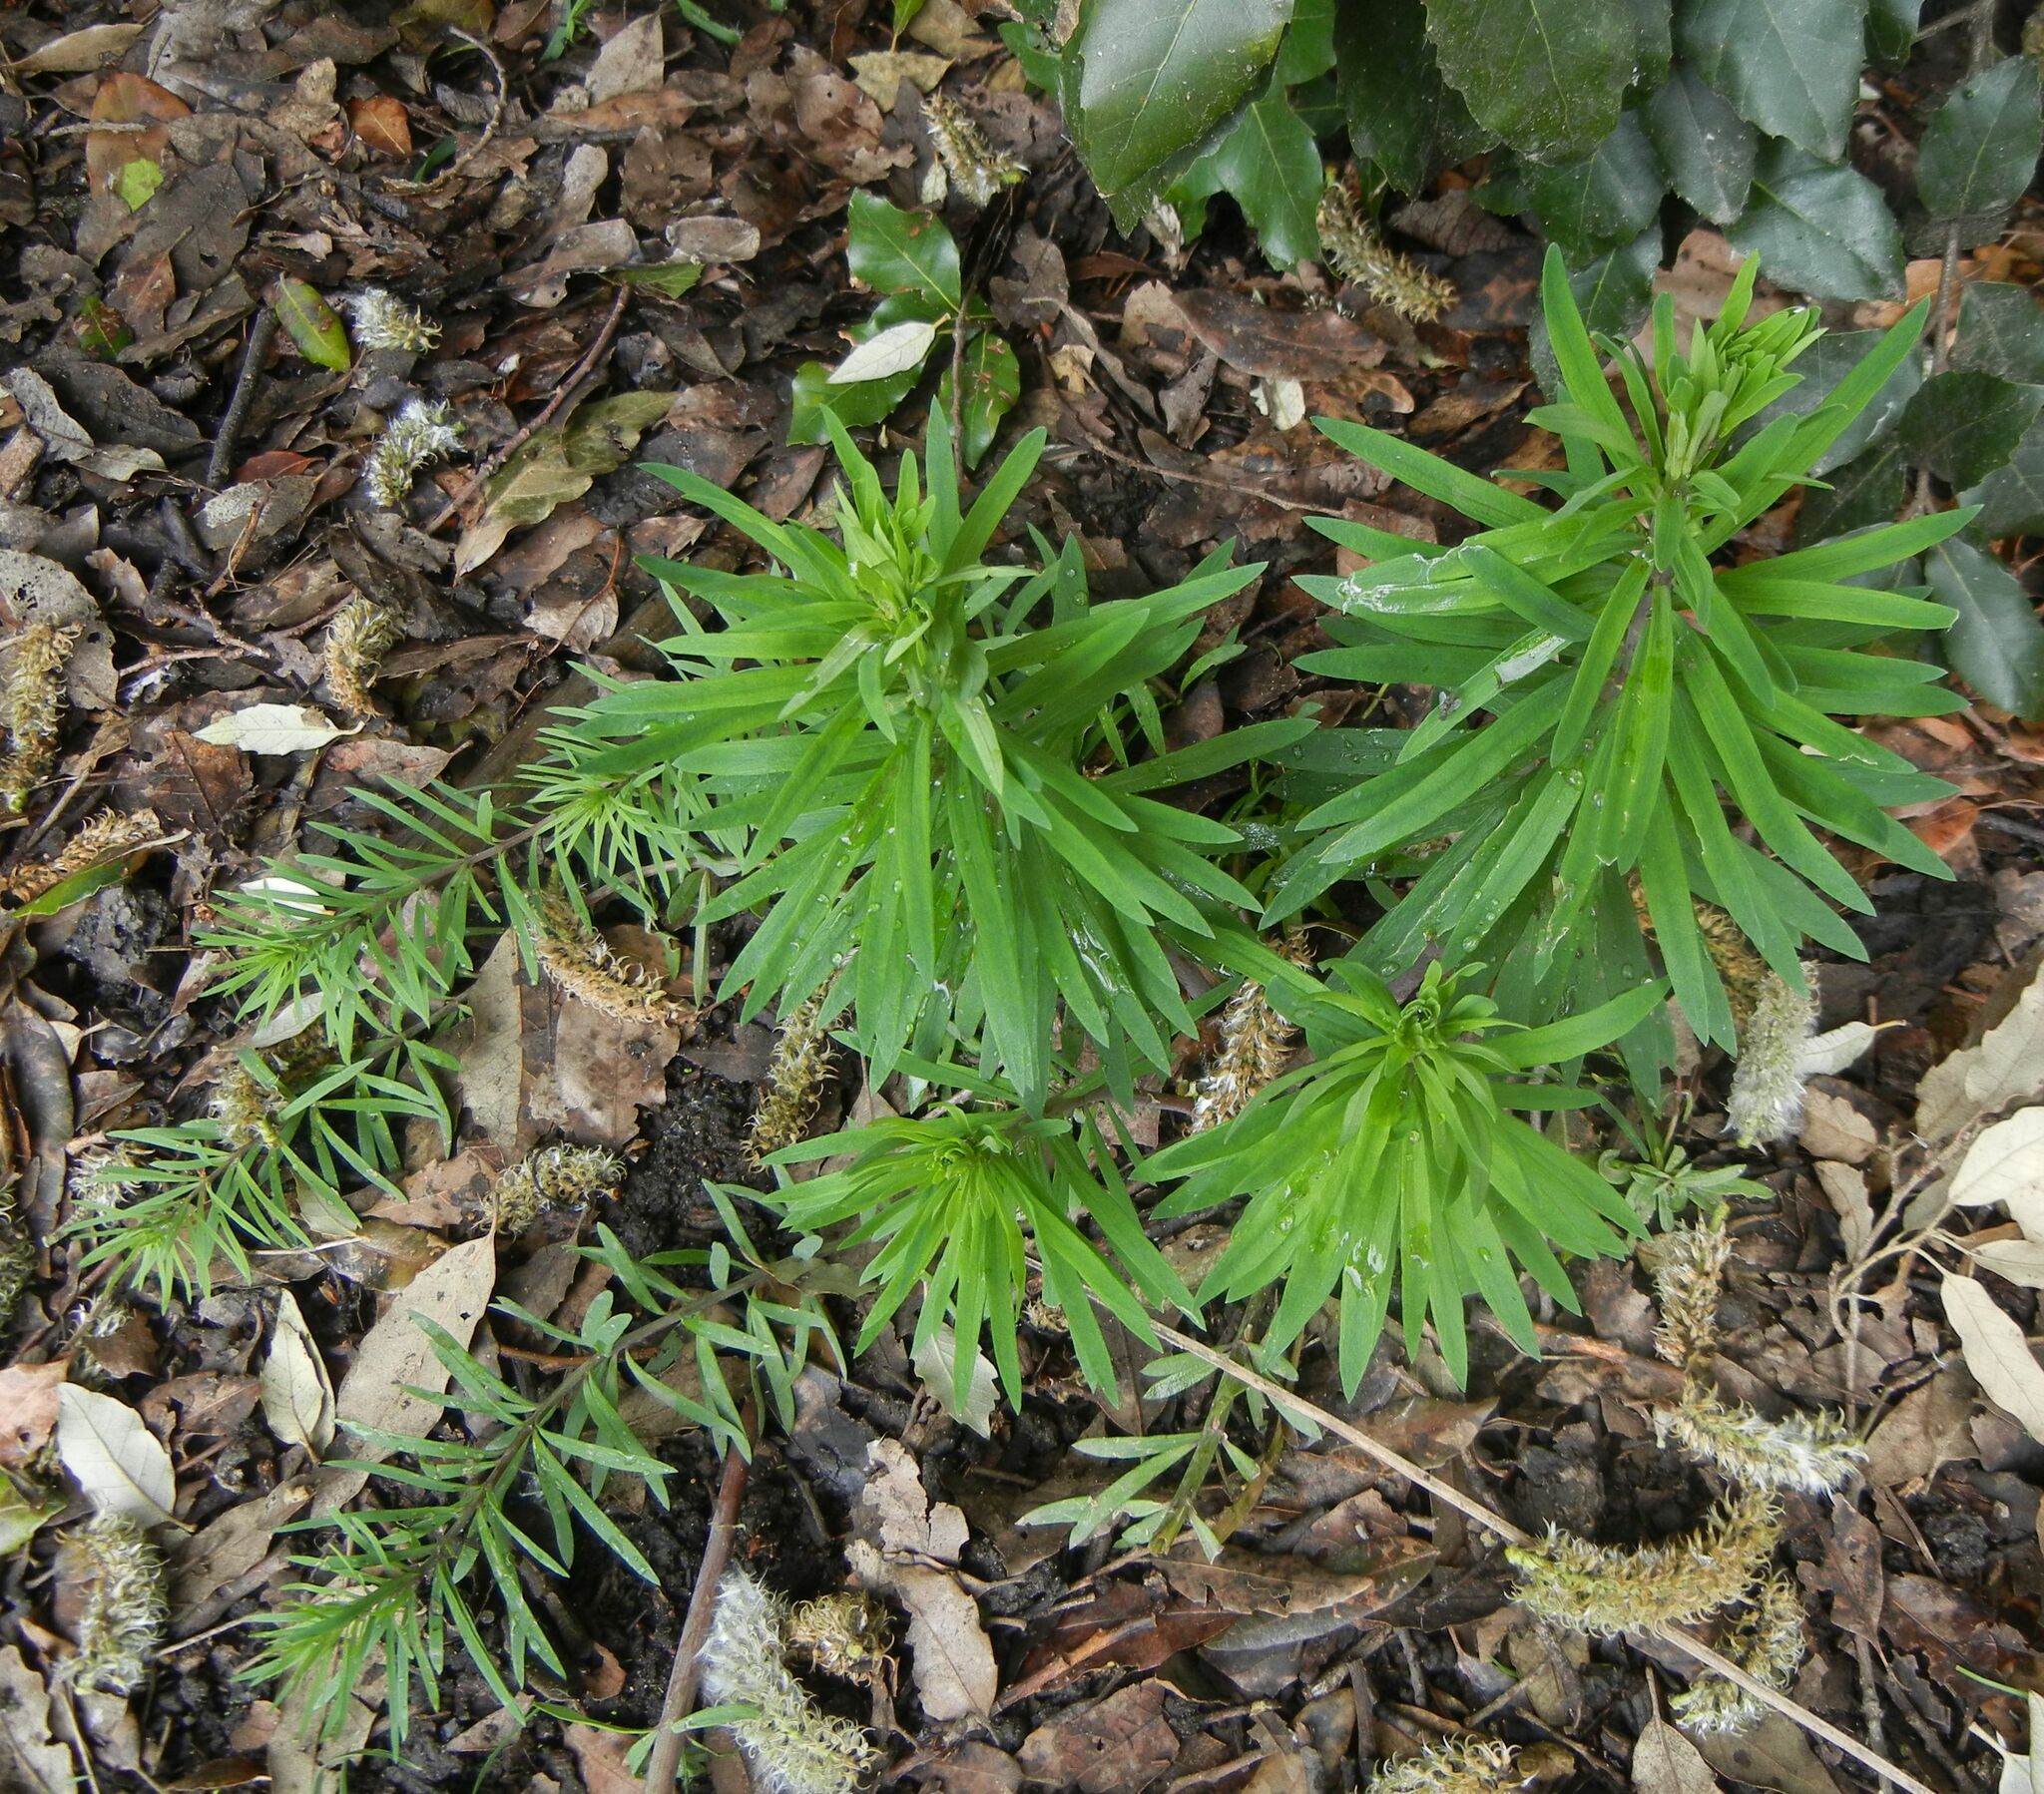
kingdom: Plantae
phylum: Tracheophyta
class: Magnoliopsida
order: Lamiales
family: Plantaginaceae
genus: Linaria
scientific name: Linaria purpurea
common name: Purple toadflax
